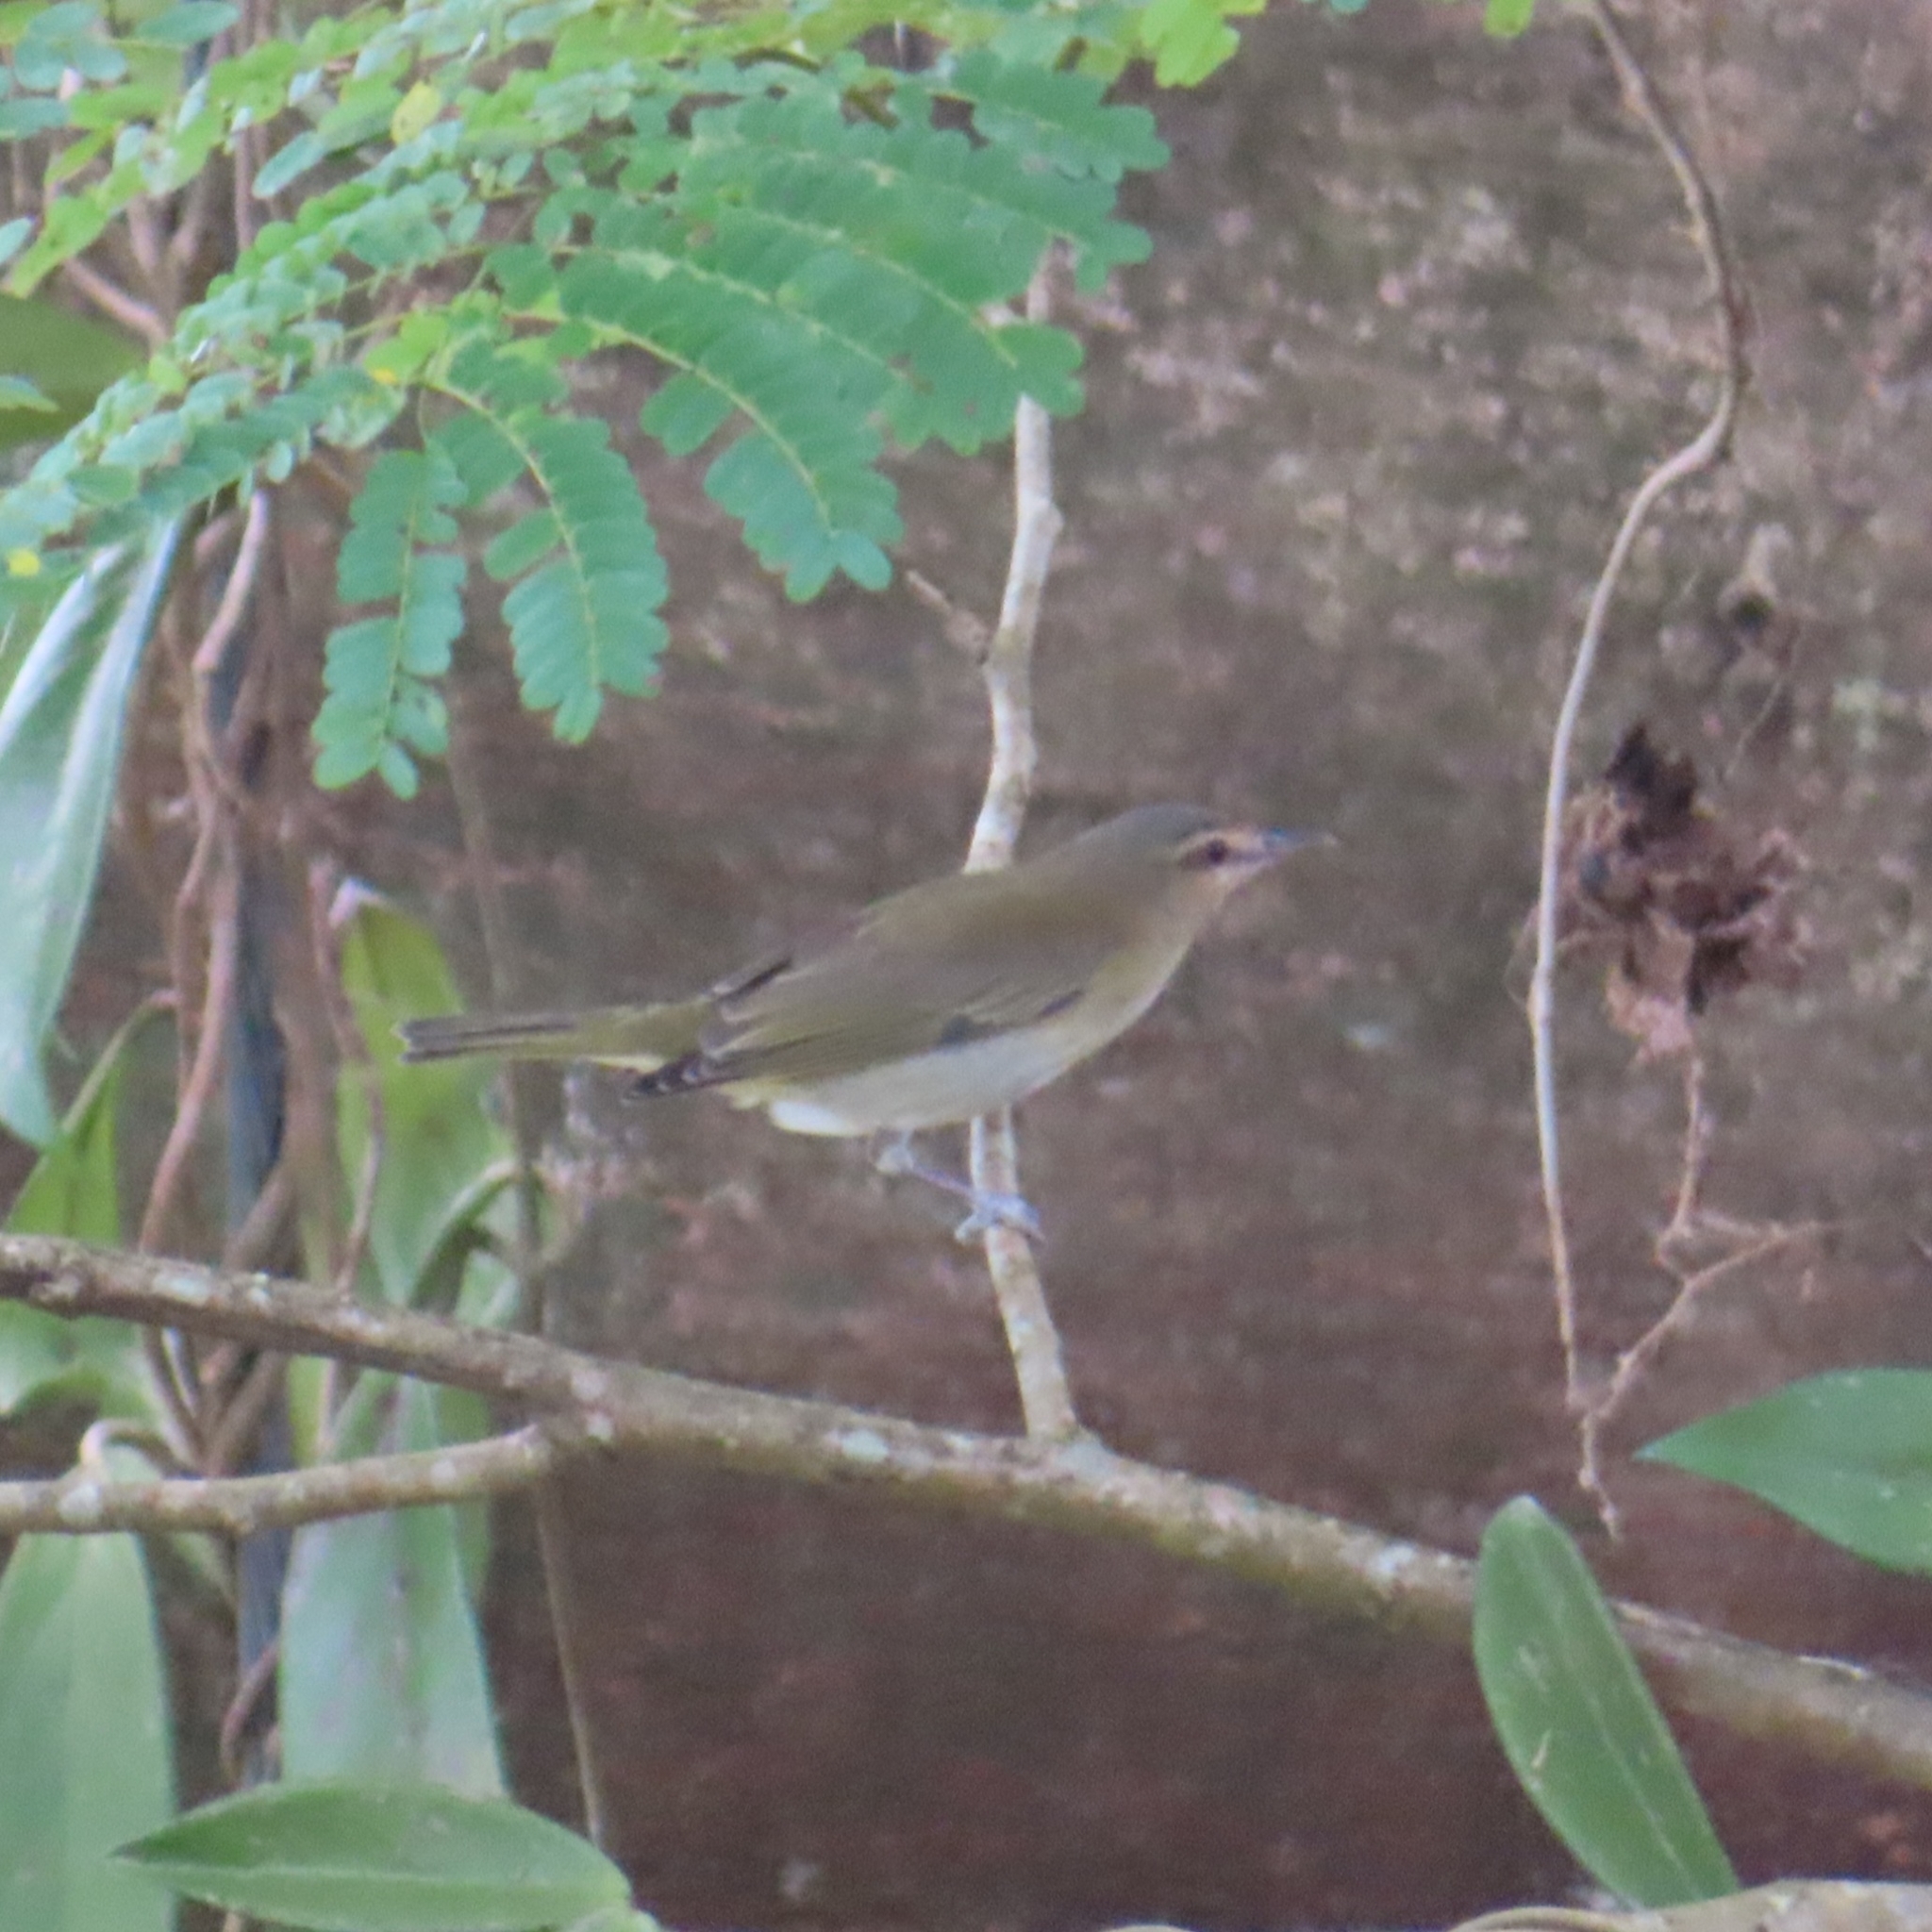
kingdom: Animalia
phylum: Chordata
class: Aves
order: Passeriformes
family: Vireonidae
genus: Vireo
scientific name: Vireo altiloquus
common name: Black-whiskered vireo
